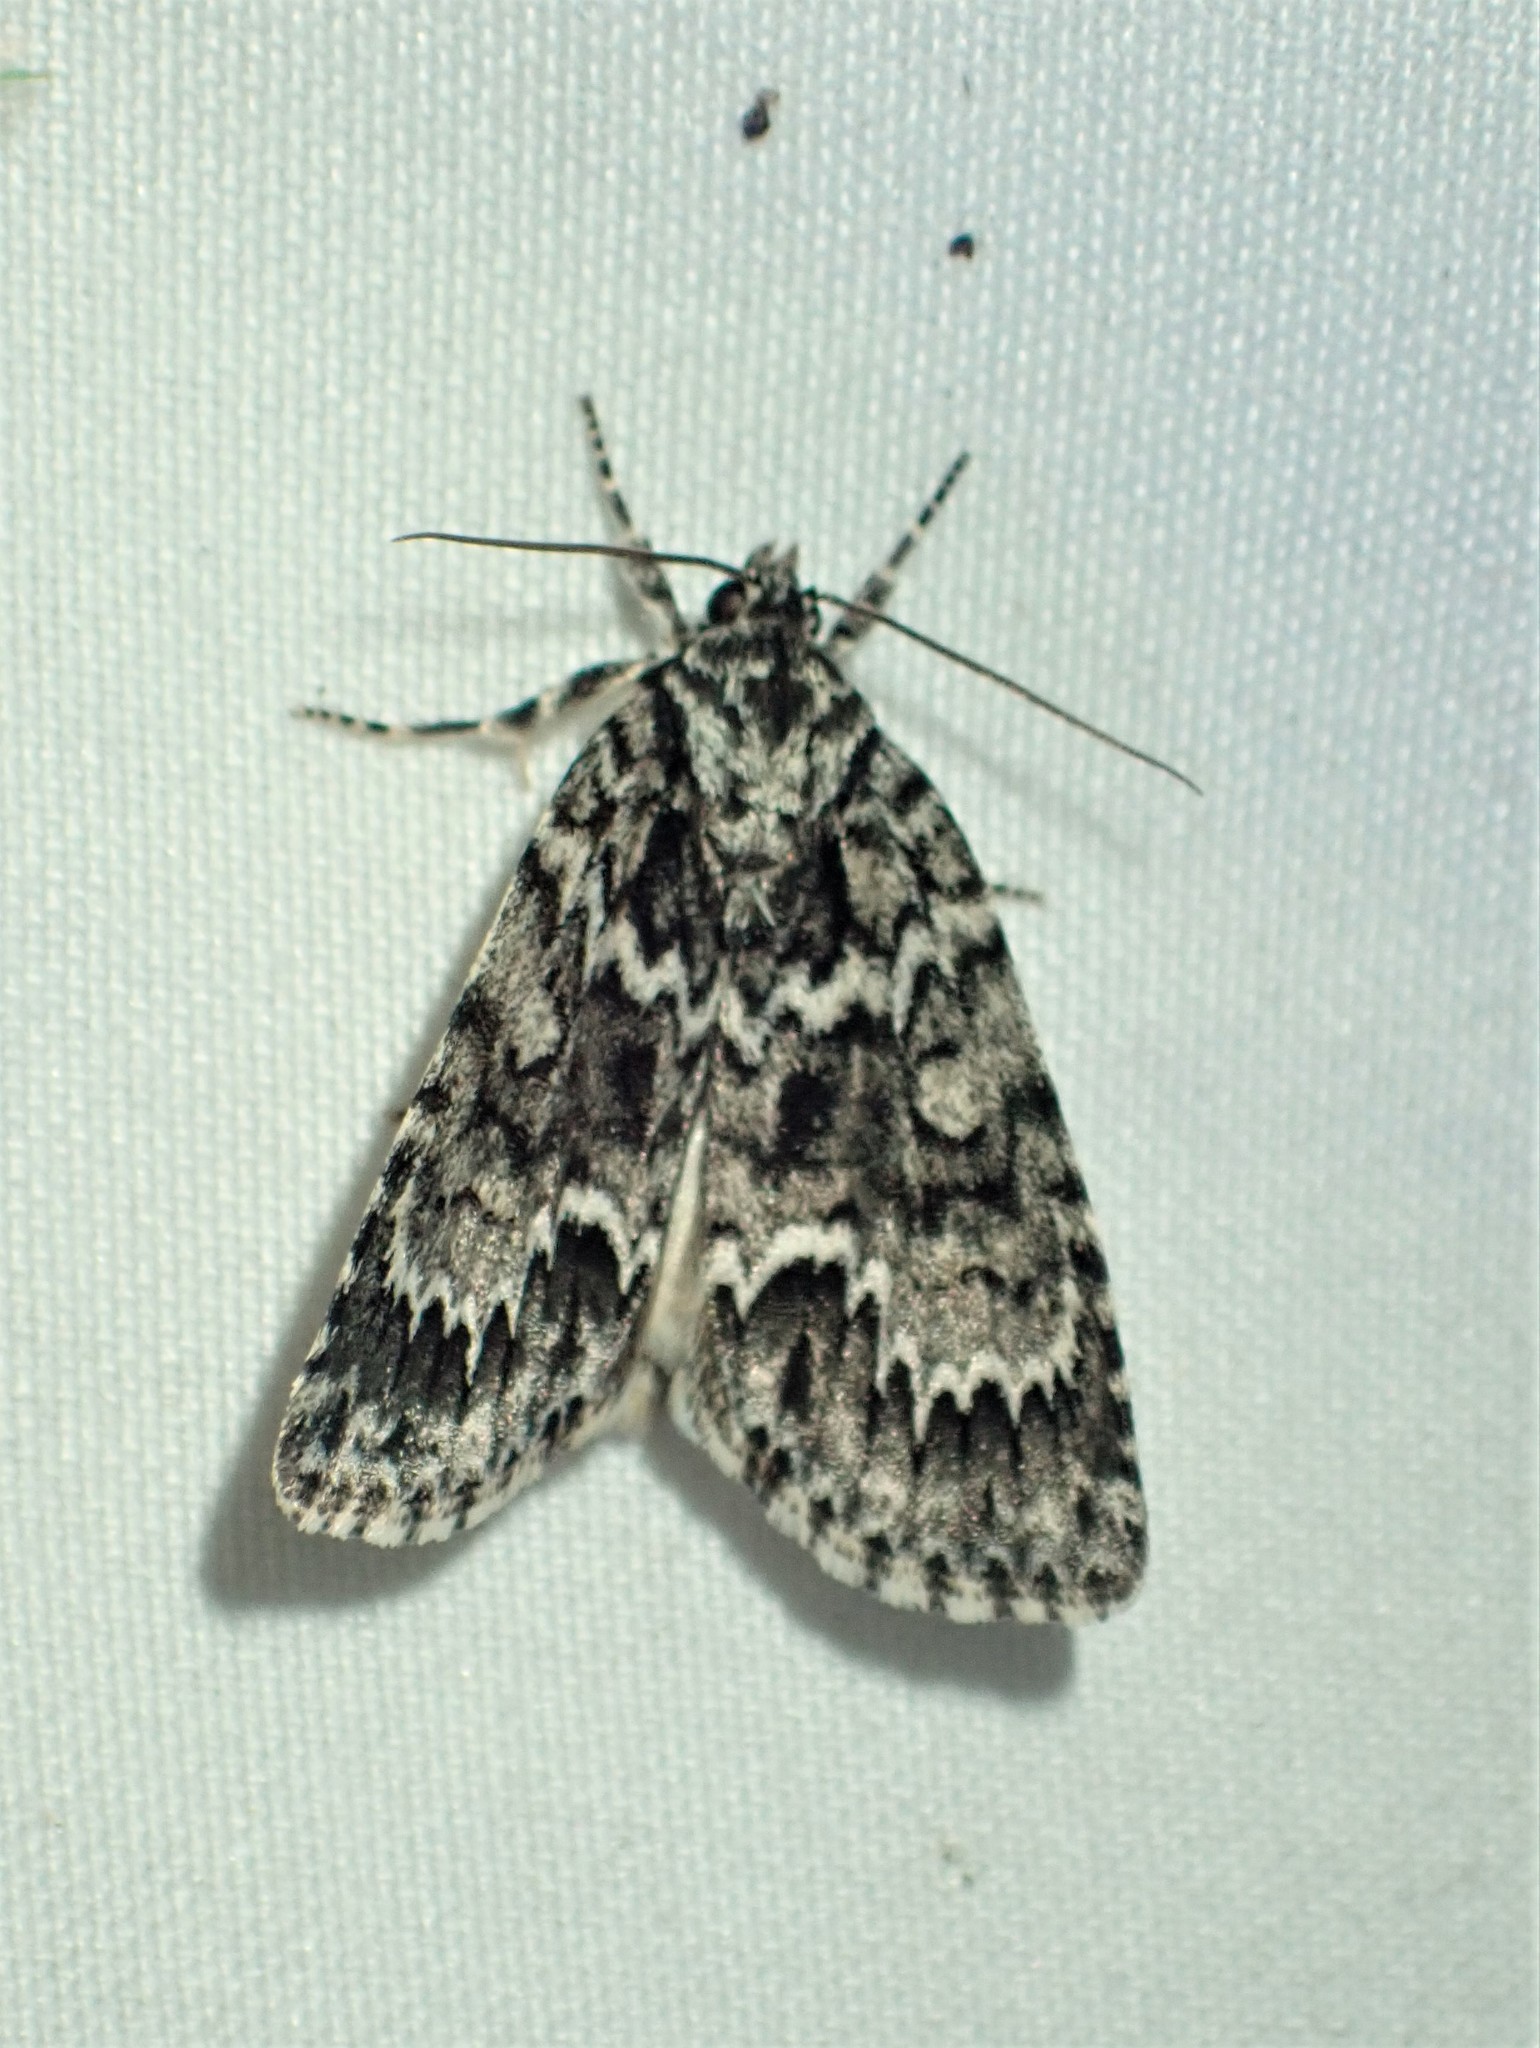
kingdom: Animalia
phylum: Arthropoda
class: Insecta
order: Lepidoptera
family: Noctuidae
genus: Acronicta
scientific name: Acronicta fragilis
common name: Fragile dagger
